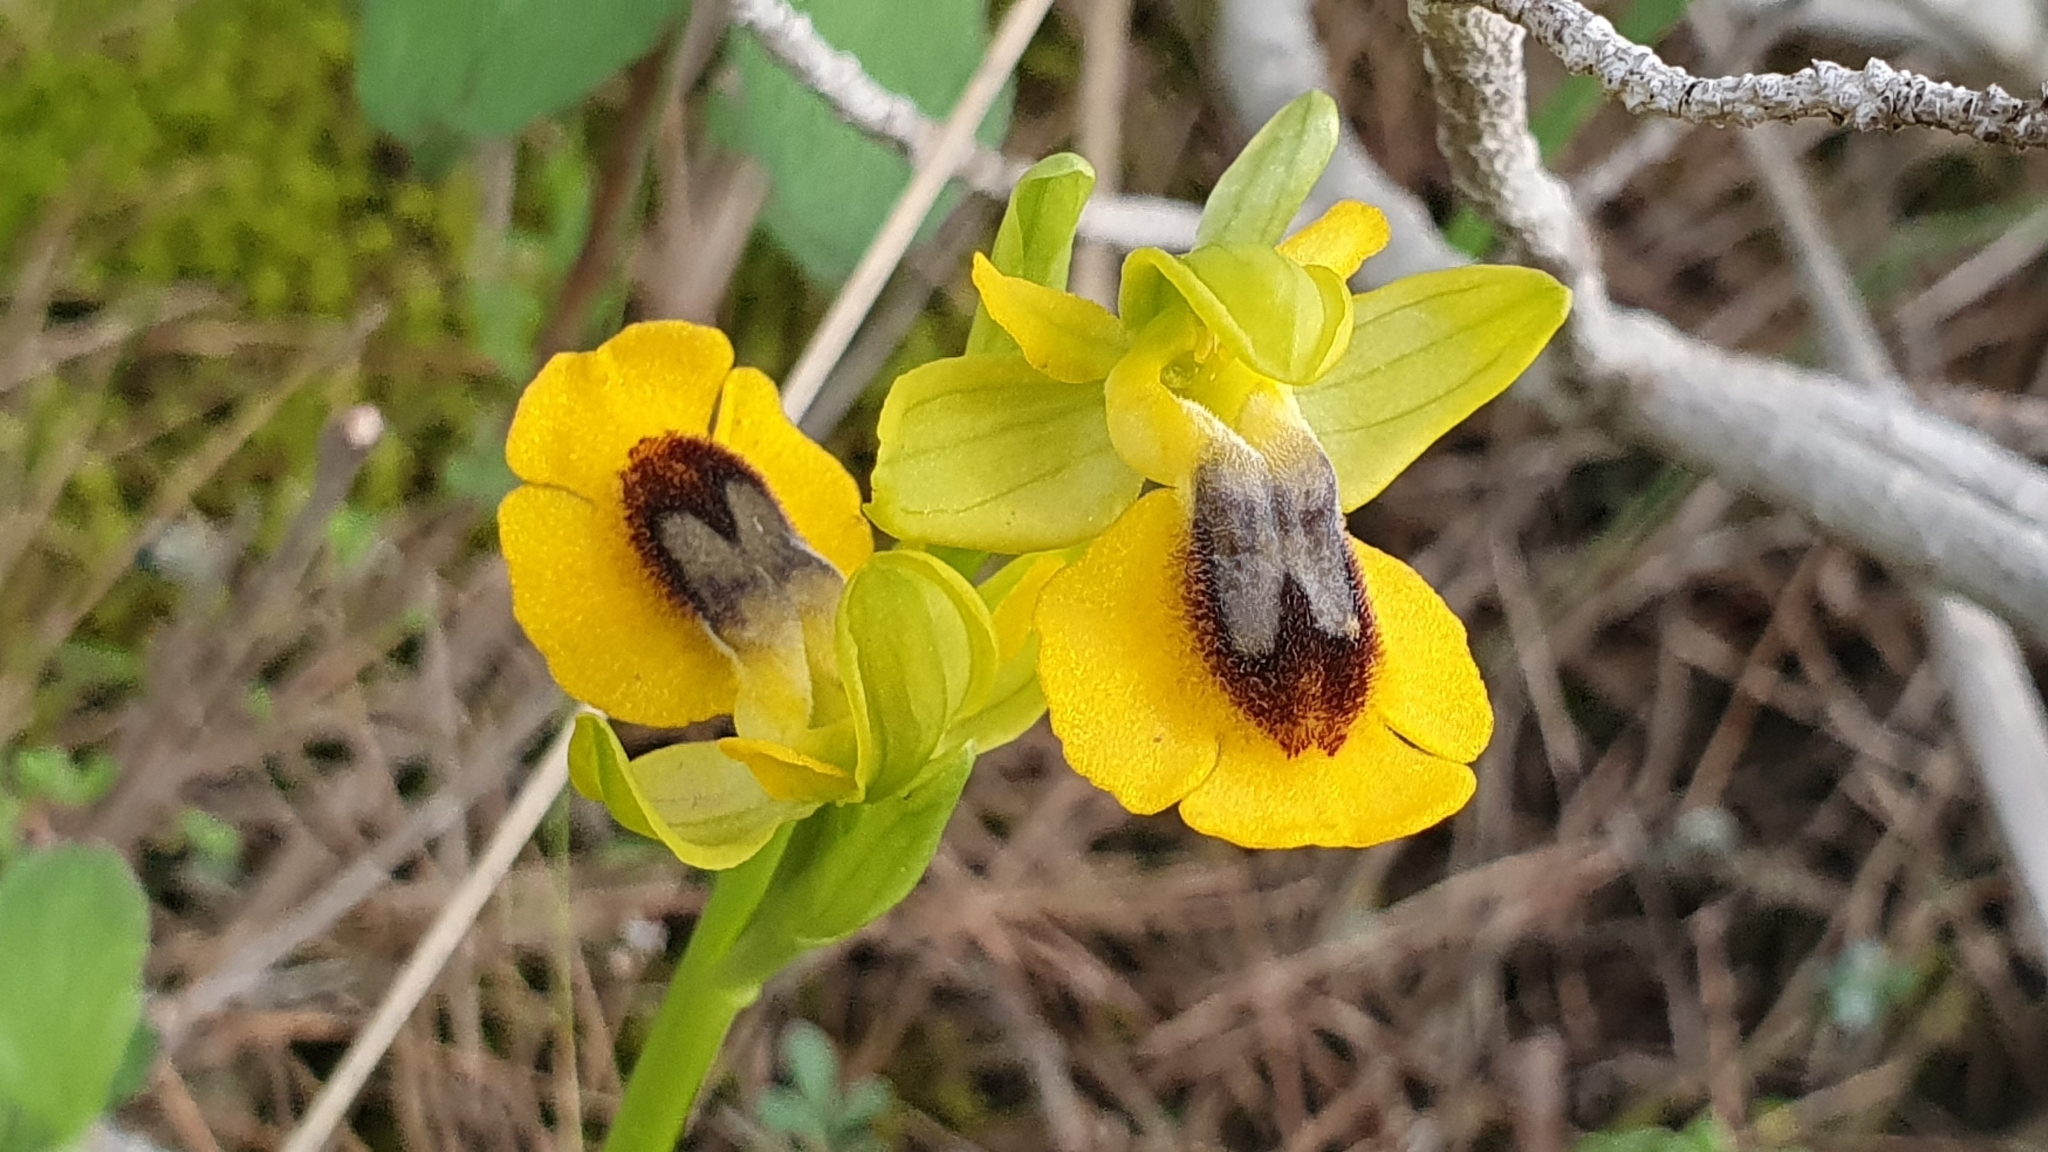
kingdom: Plantae
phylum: Tracheophyta
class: Liliopsida
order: Asparagales
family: Orchidaceae
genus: Ophrys
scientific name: Ophrys lutea
